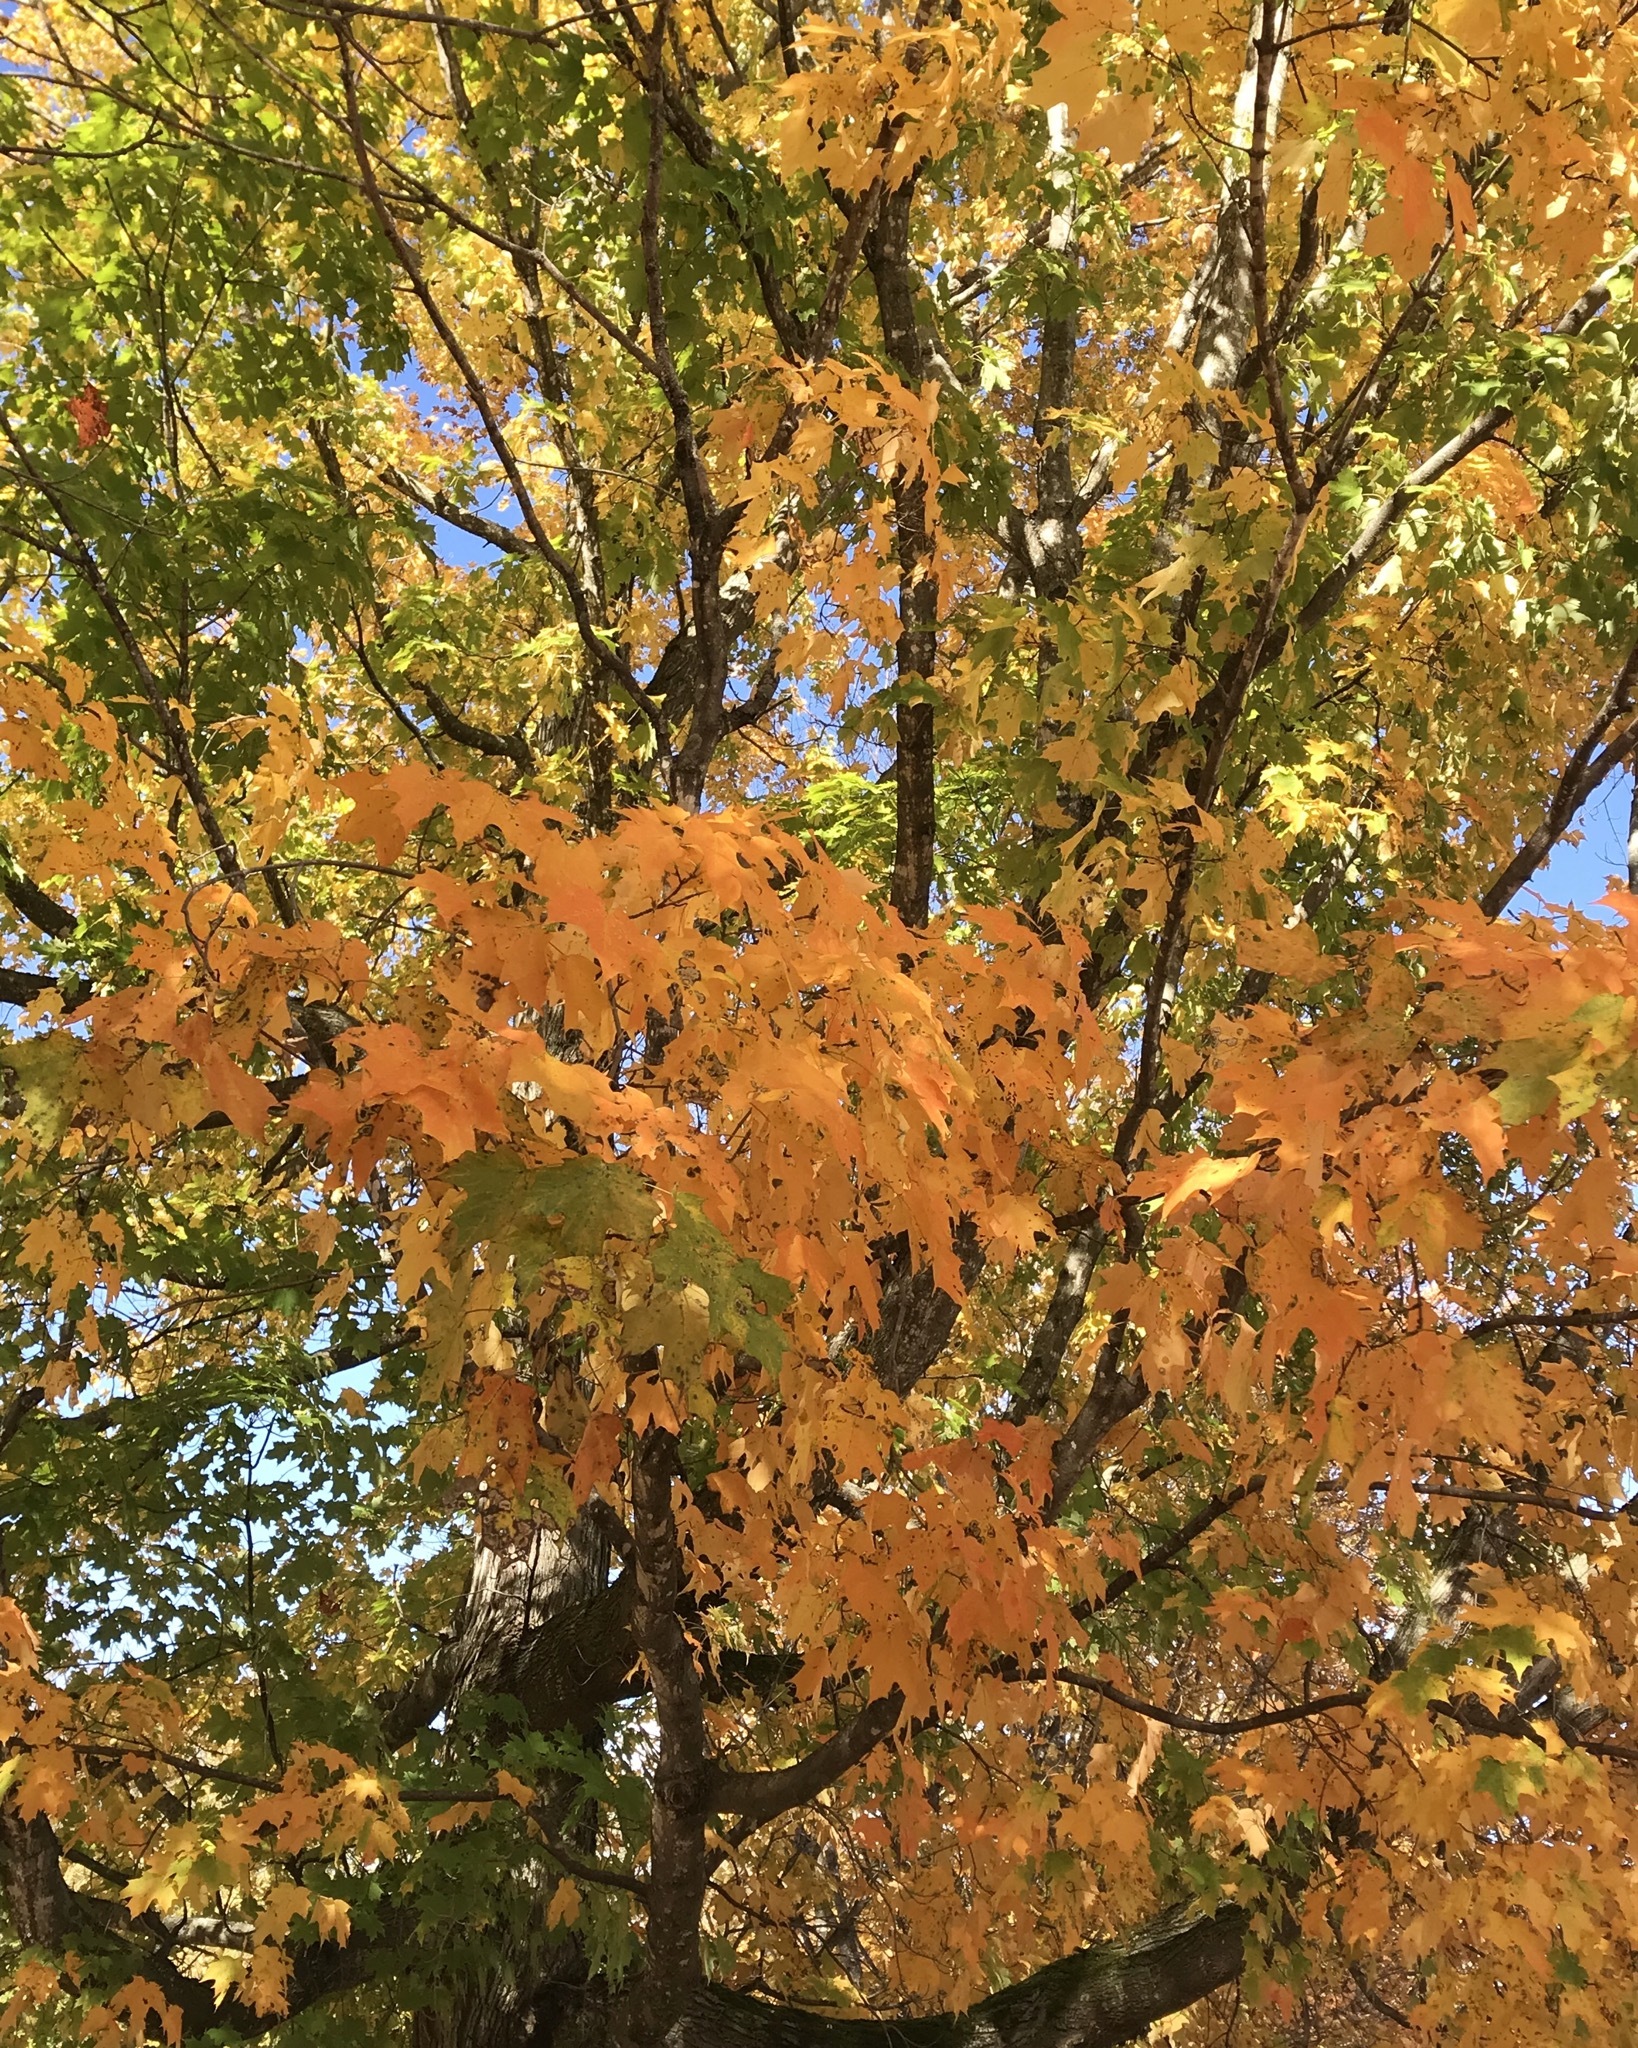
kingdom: Plantae
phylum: Tracheophyta
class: Magnoliopsida
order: Sapindales
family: Sapindaceae
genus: Acer
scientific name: Acer saccharum
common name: Sugar maple
